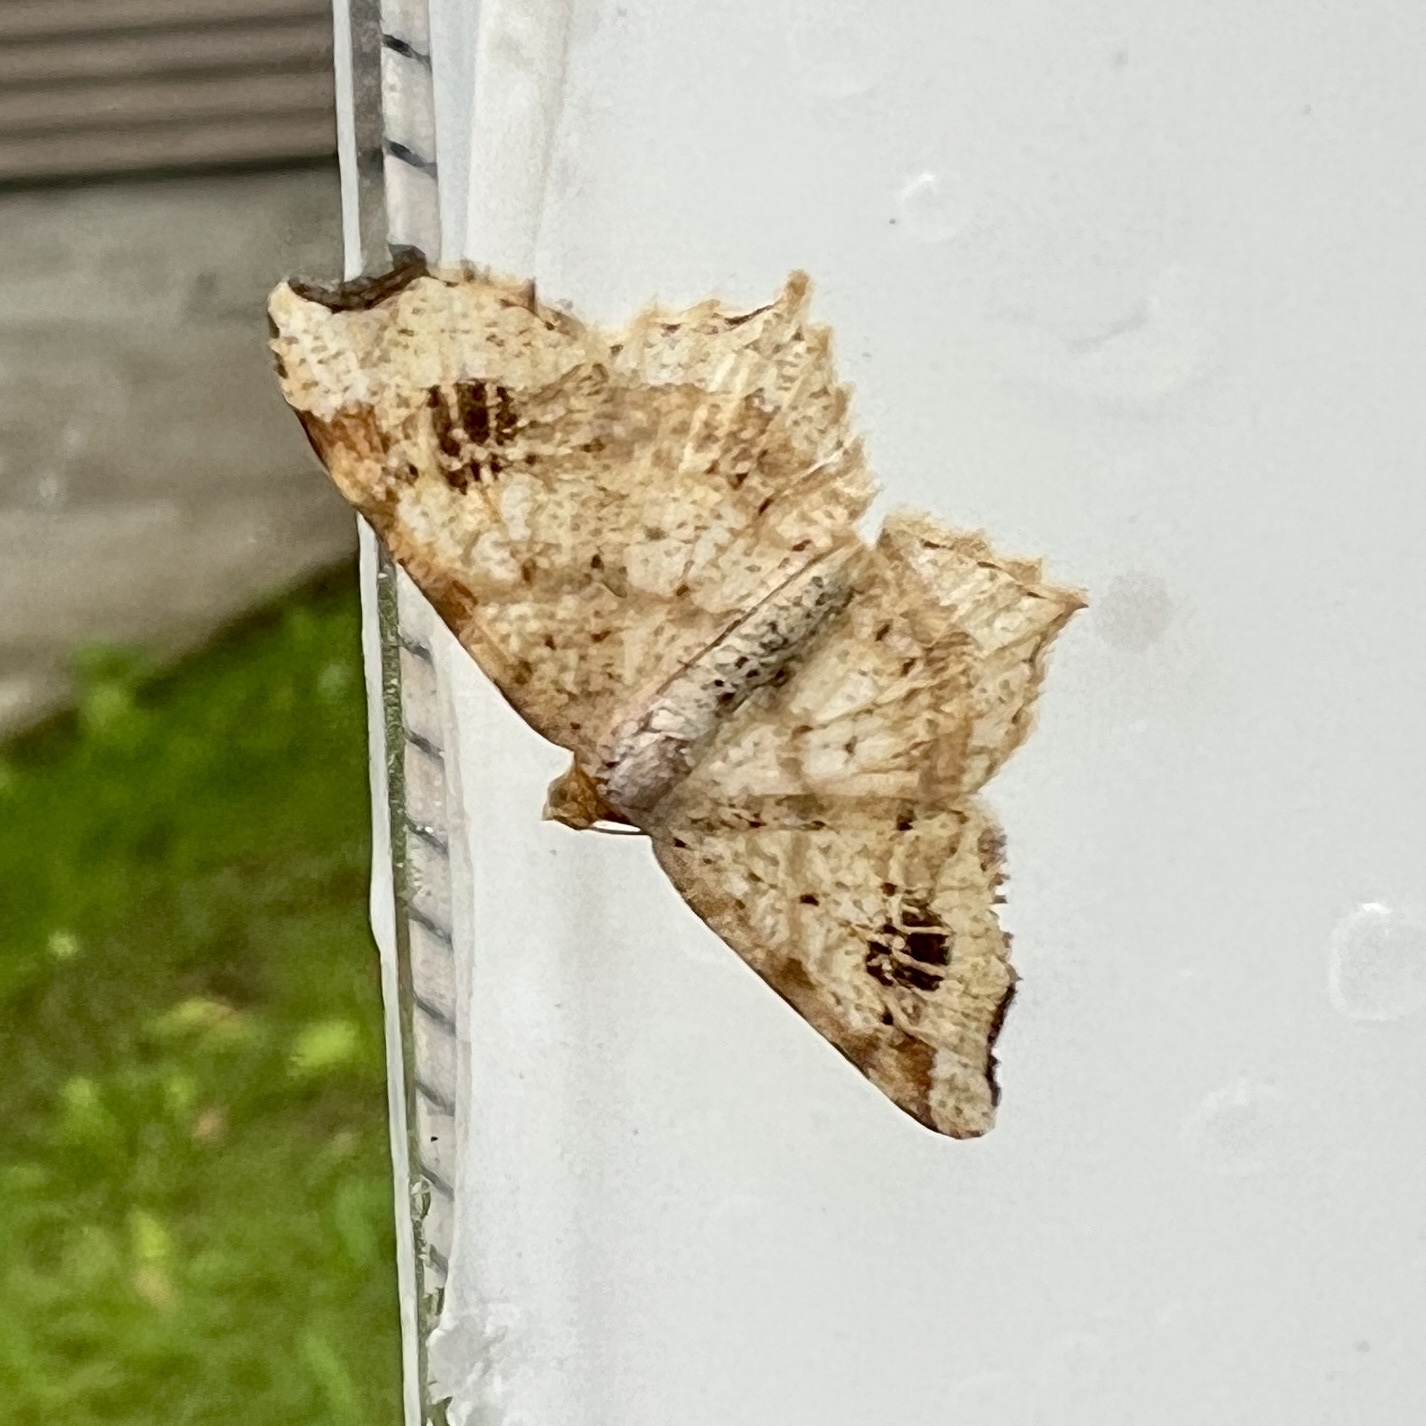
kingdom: Animalia
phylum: Arthropoda
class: Insecta
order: Lepidoptera
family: Geometridae
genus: Macaria
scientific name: Macaria aemulataria
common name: Common angle
